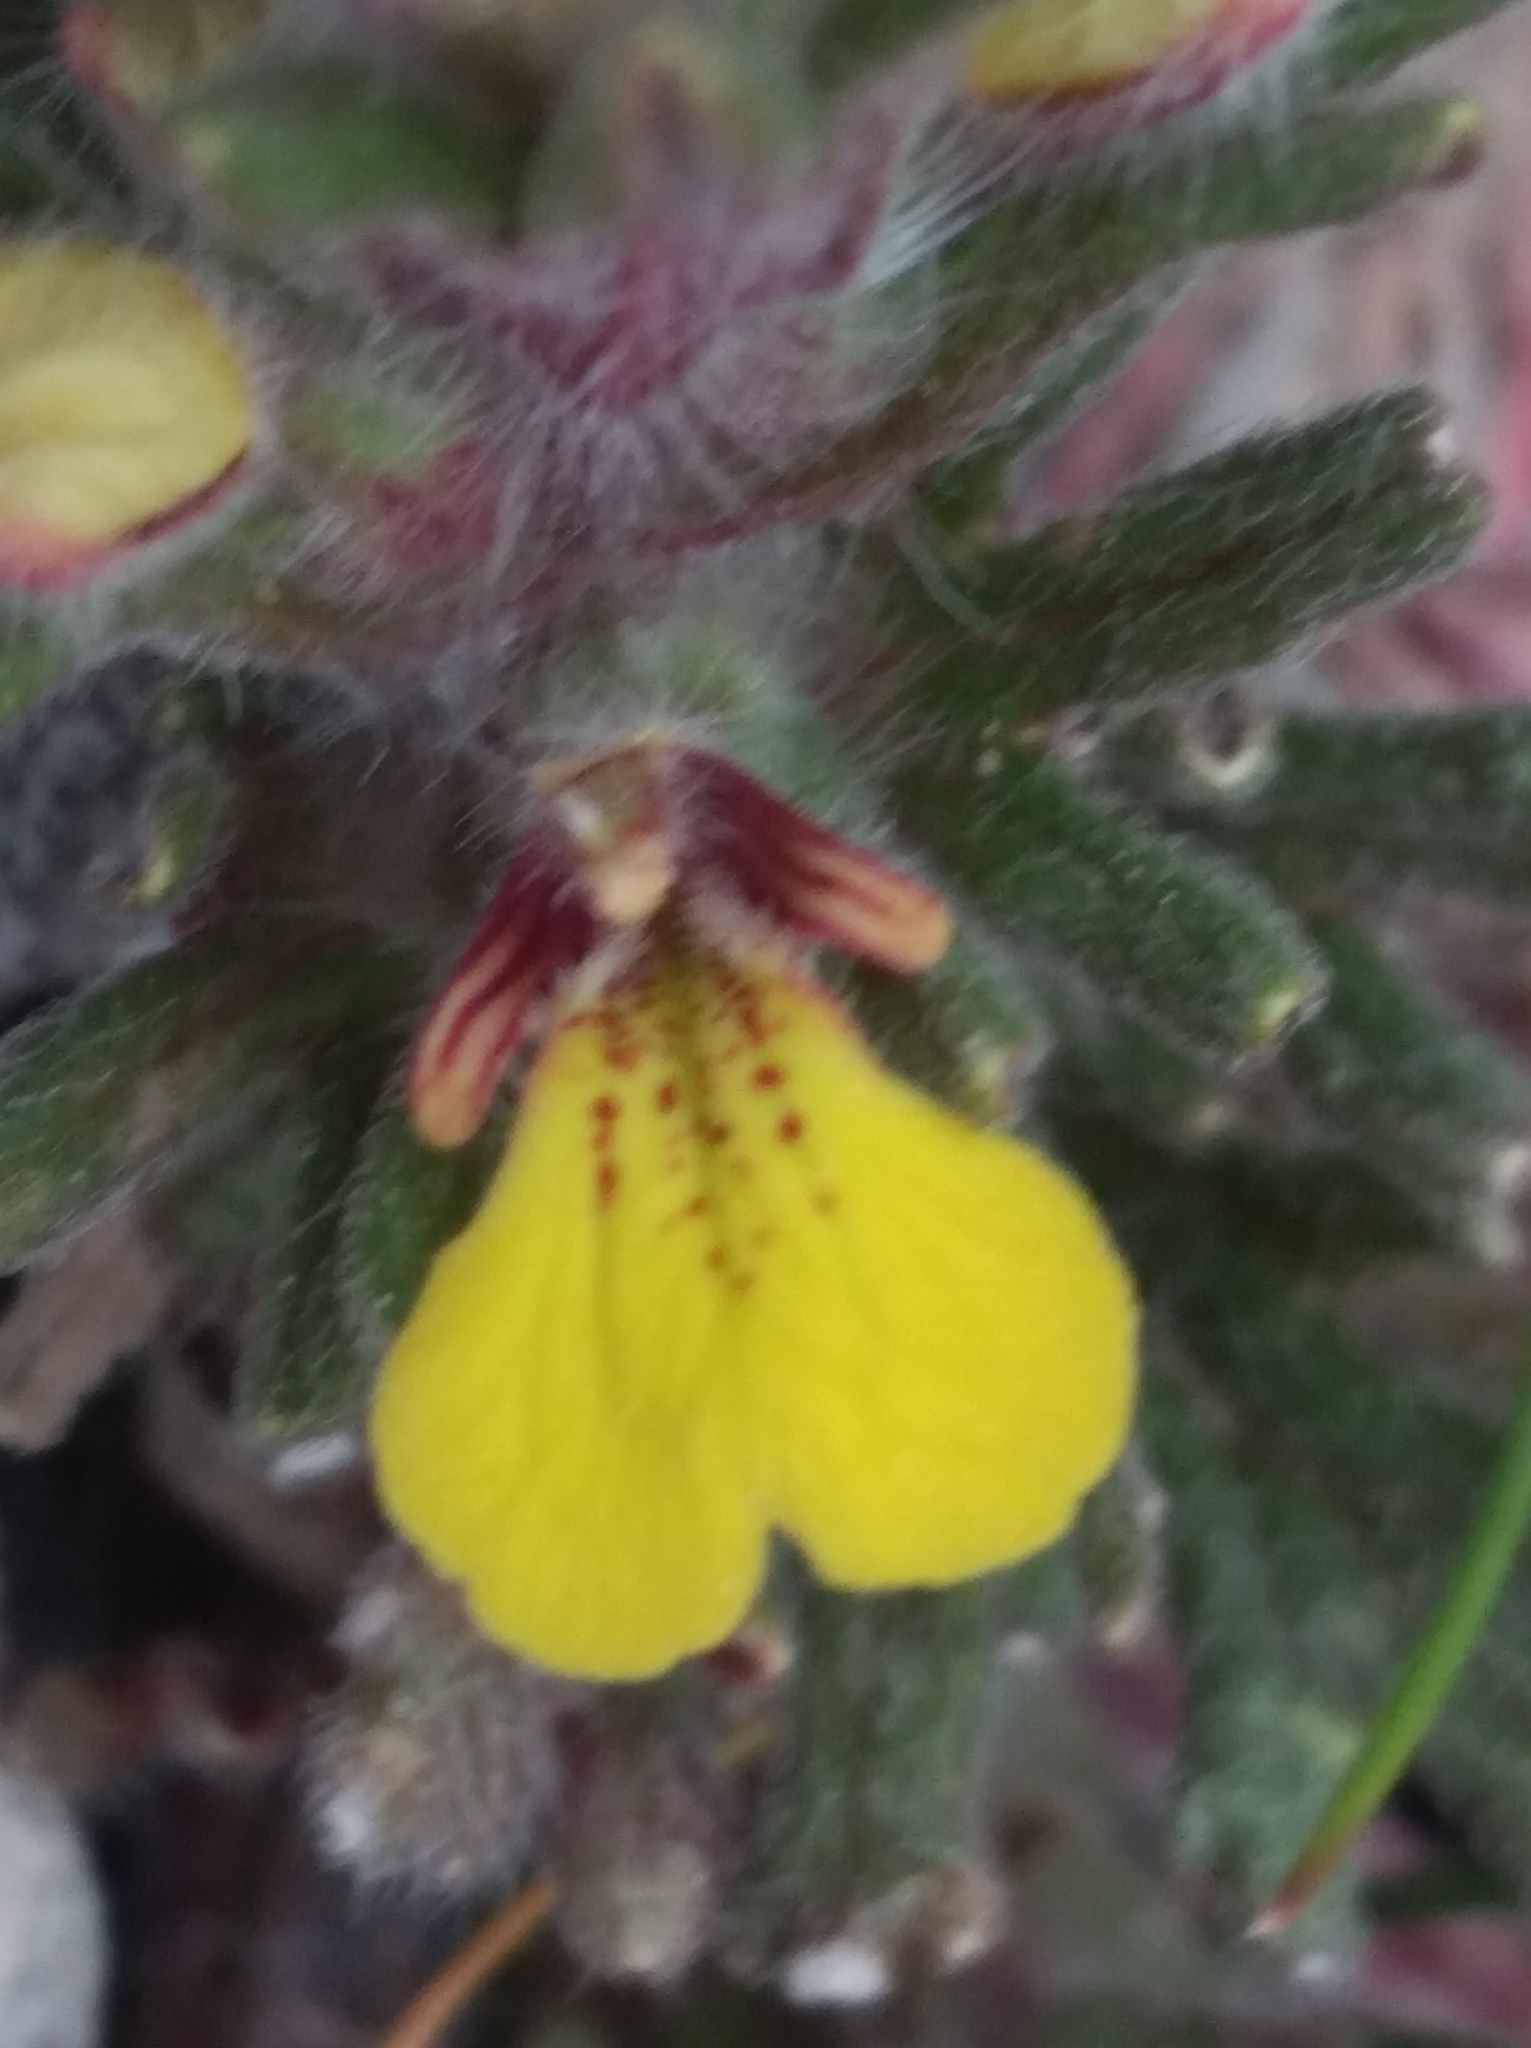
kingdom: Plantae
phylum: Tracheophyta
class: Magnoliopsida
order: Lamiales
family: Lamiaceae
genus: Ajuga
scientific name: Ajuga chamaepitys
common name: Ground-pine
